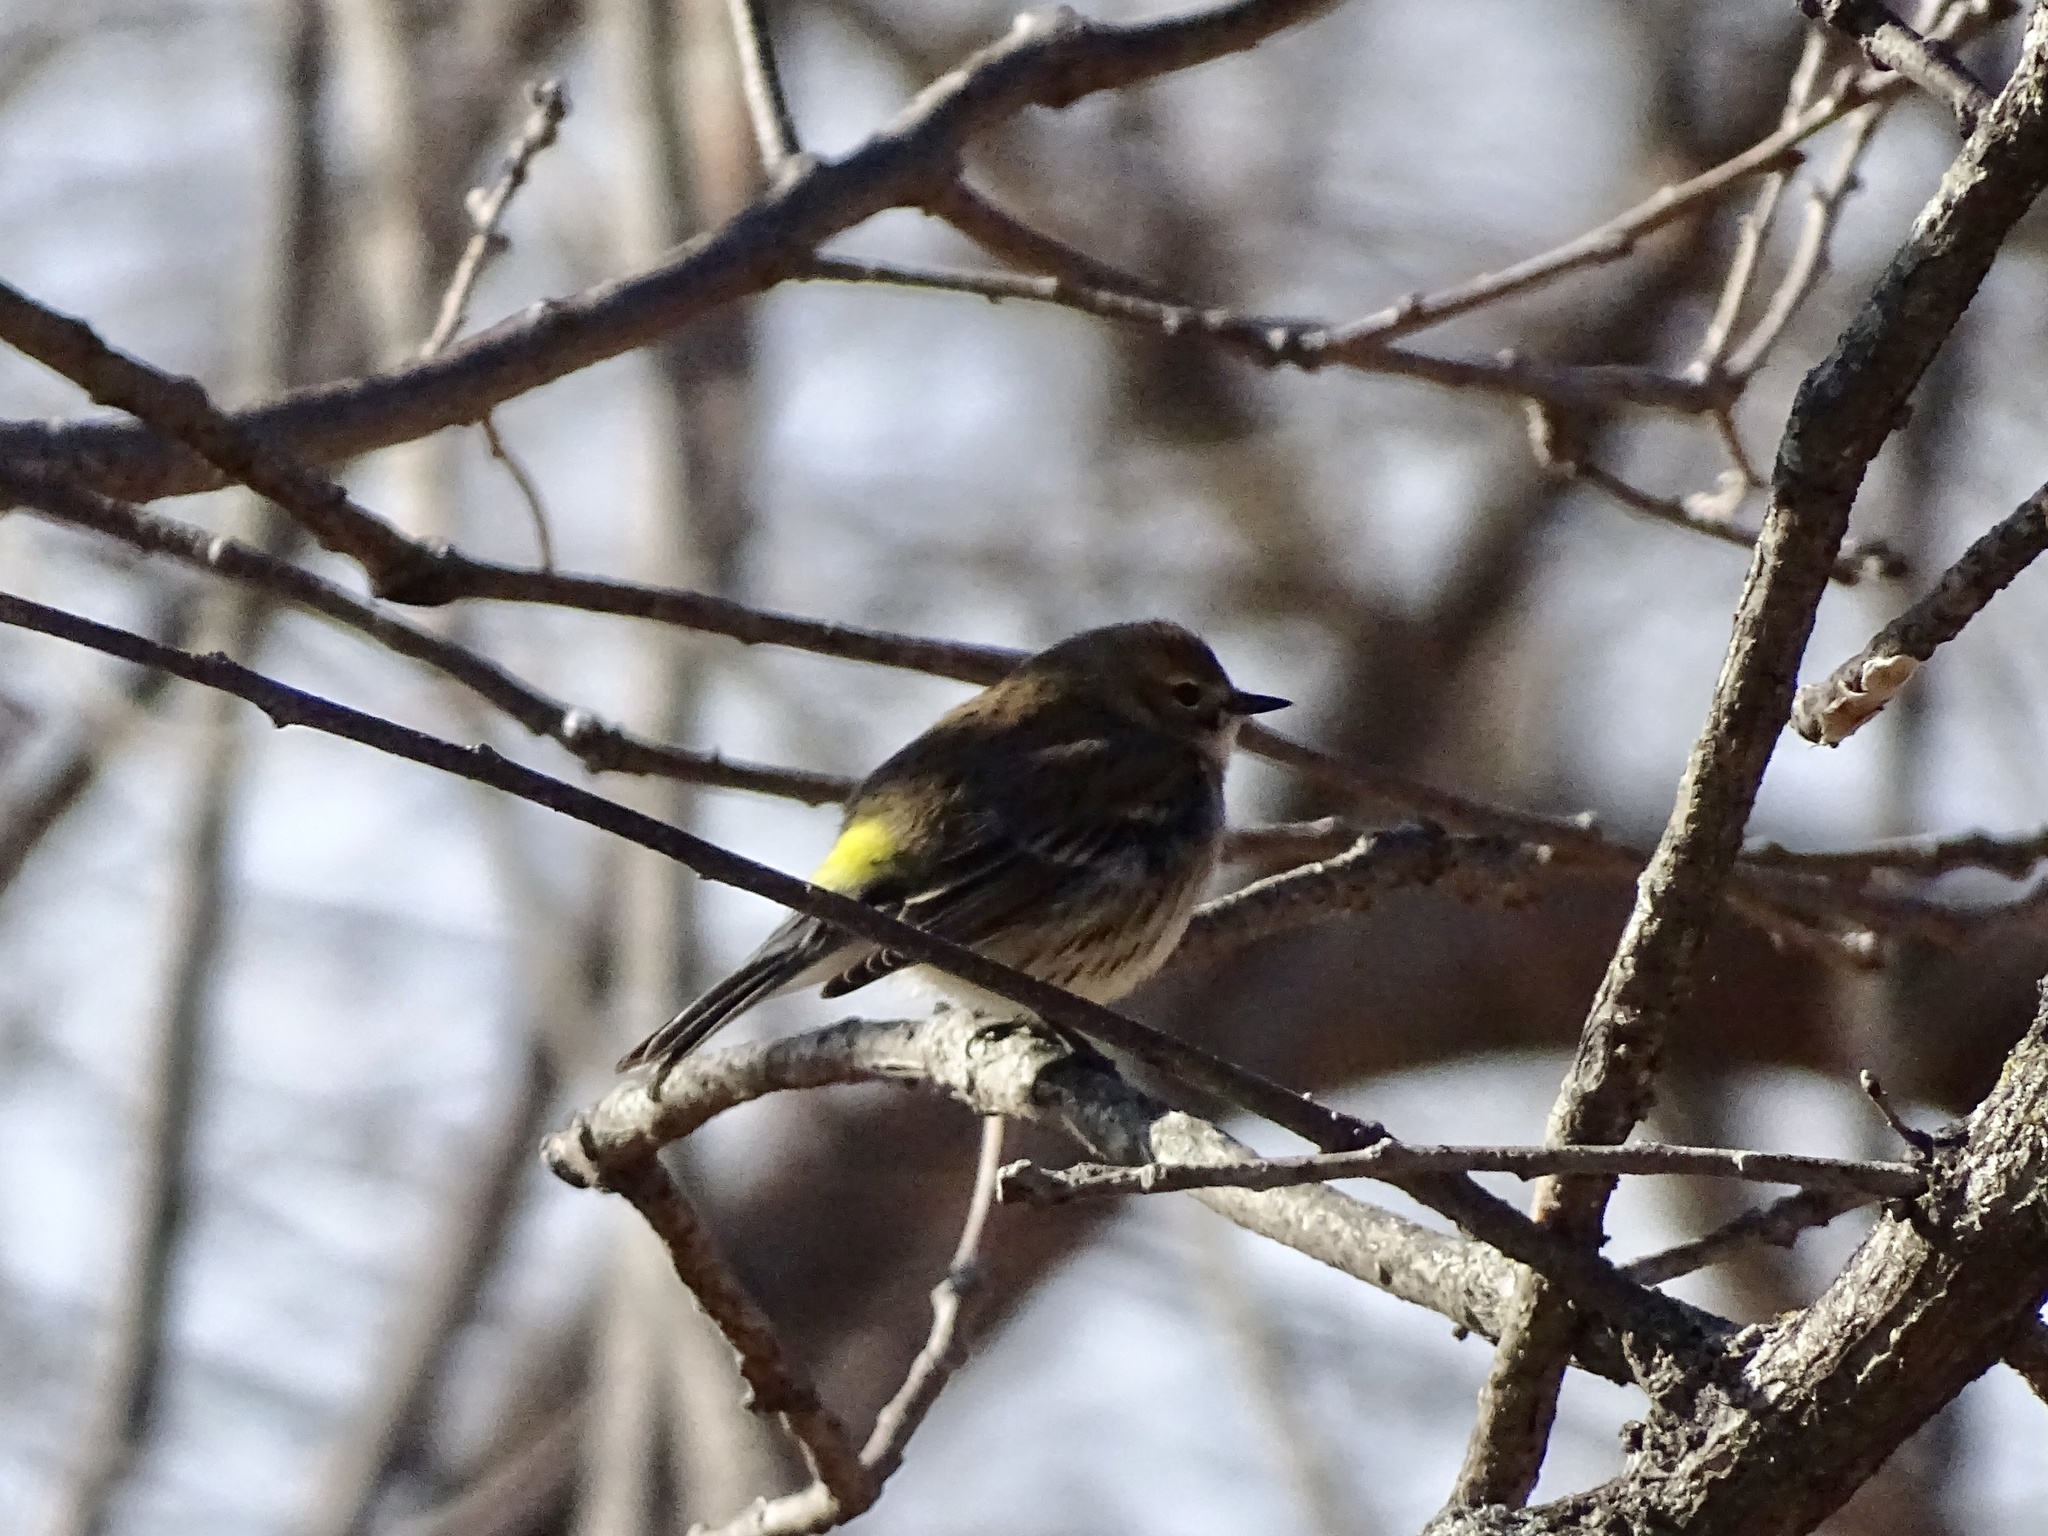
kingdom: Animalia
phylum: Chordata
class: Aves
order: Passeriformes
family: Parulidae
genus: Setophaga
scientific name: Setophaga coronata
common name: Myrtle warbler
